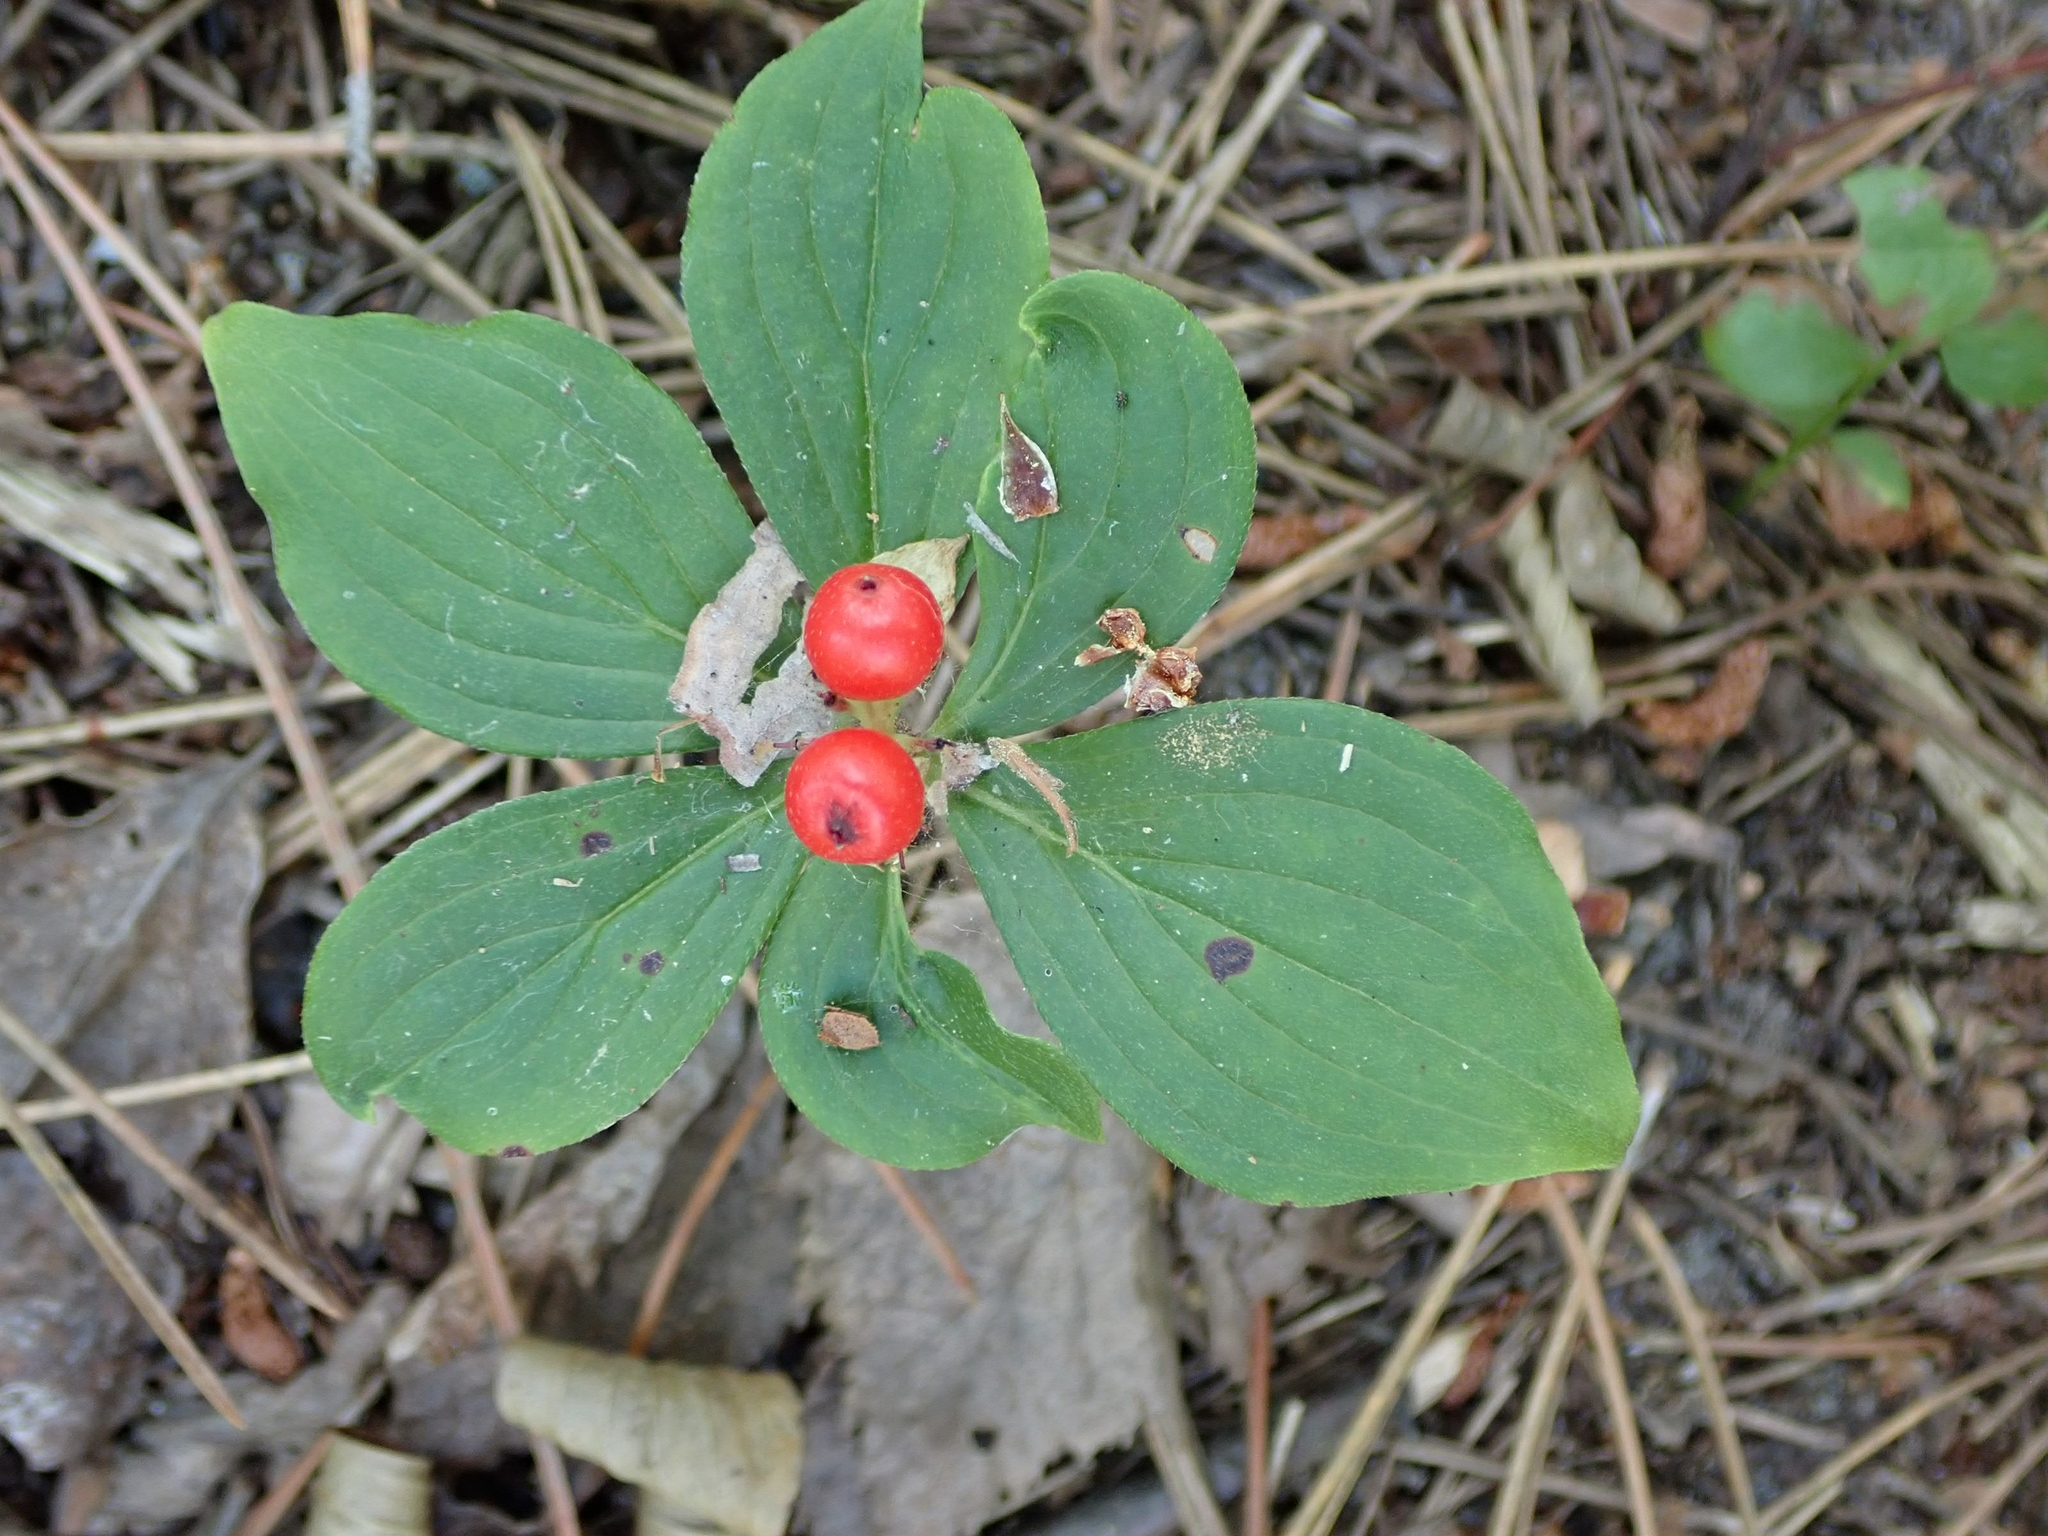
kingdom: Plantae
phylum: Tracheophyta
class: Magnoliopsida
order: Cornales
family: Cornaceae
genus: Cornus
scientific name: Cornus canadensis
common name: Creeping dogwood
